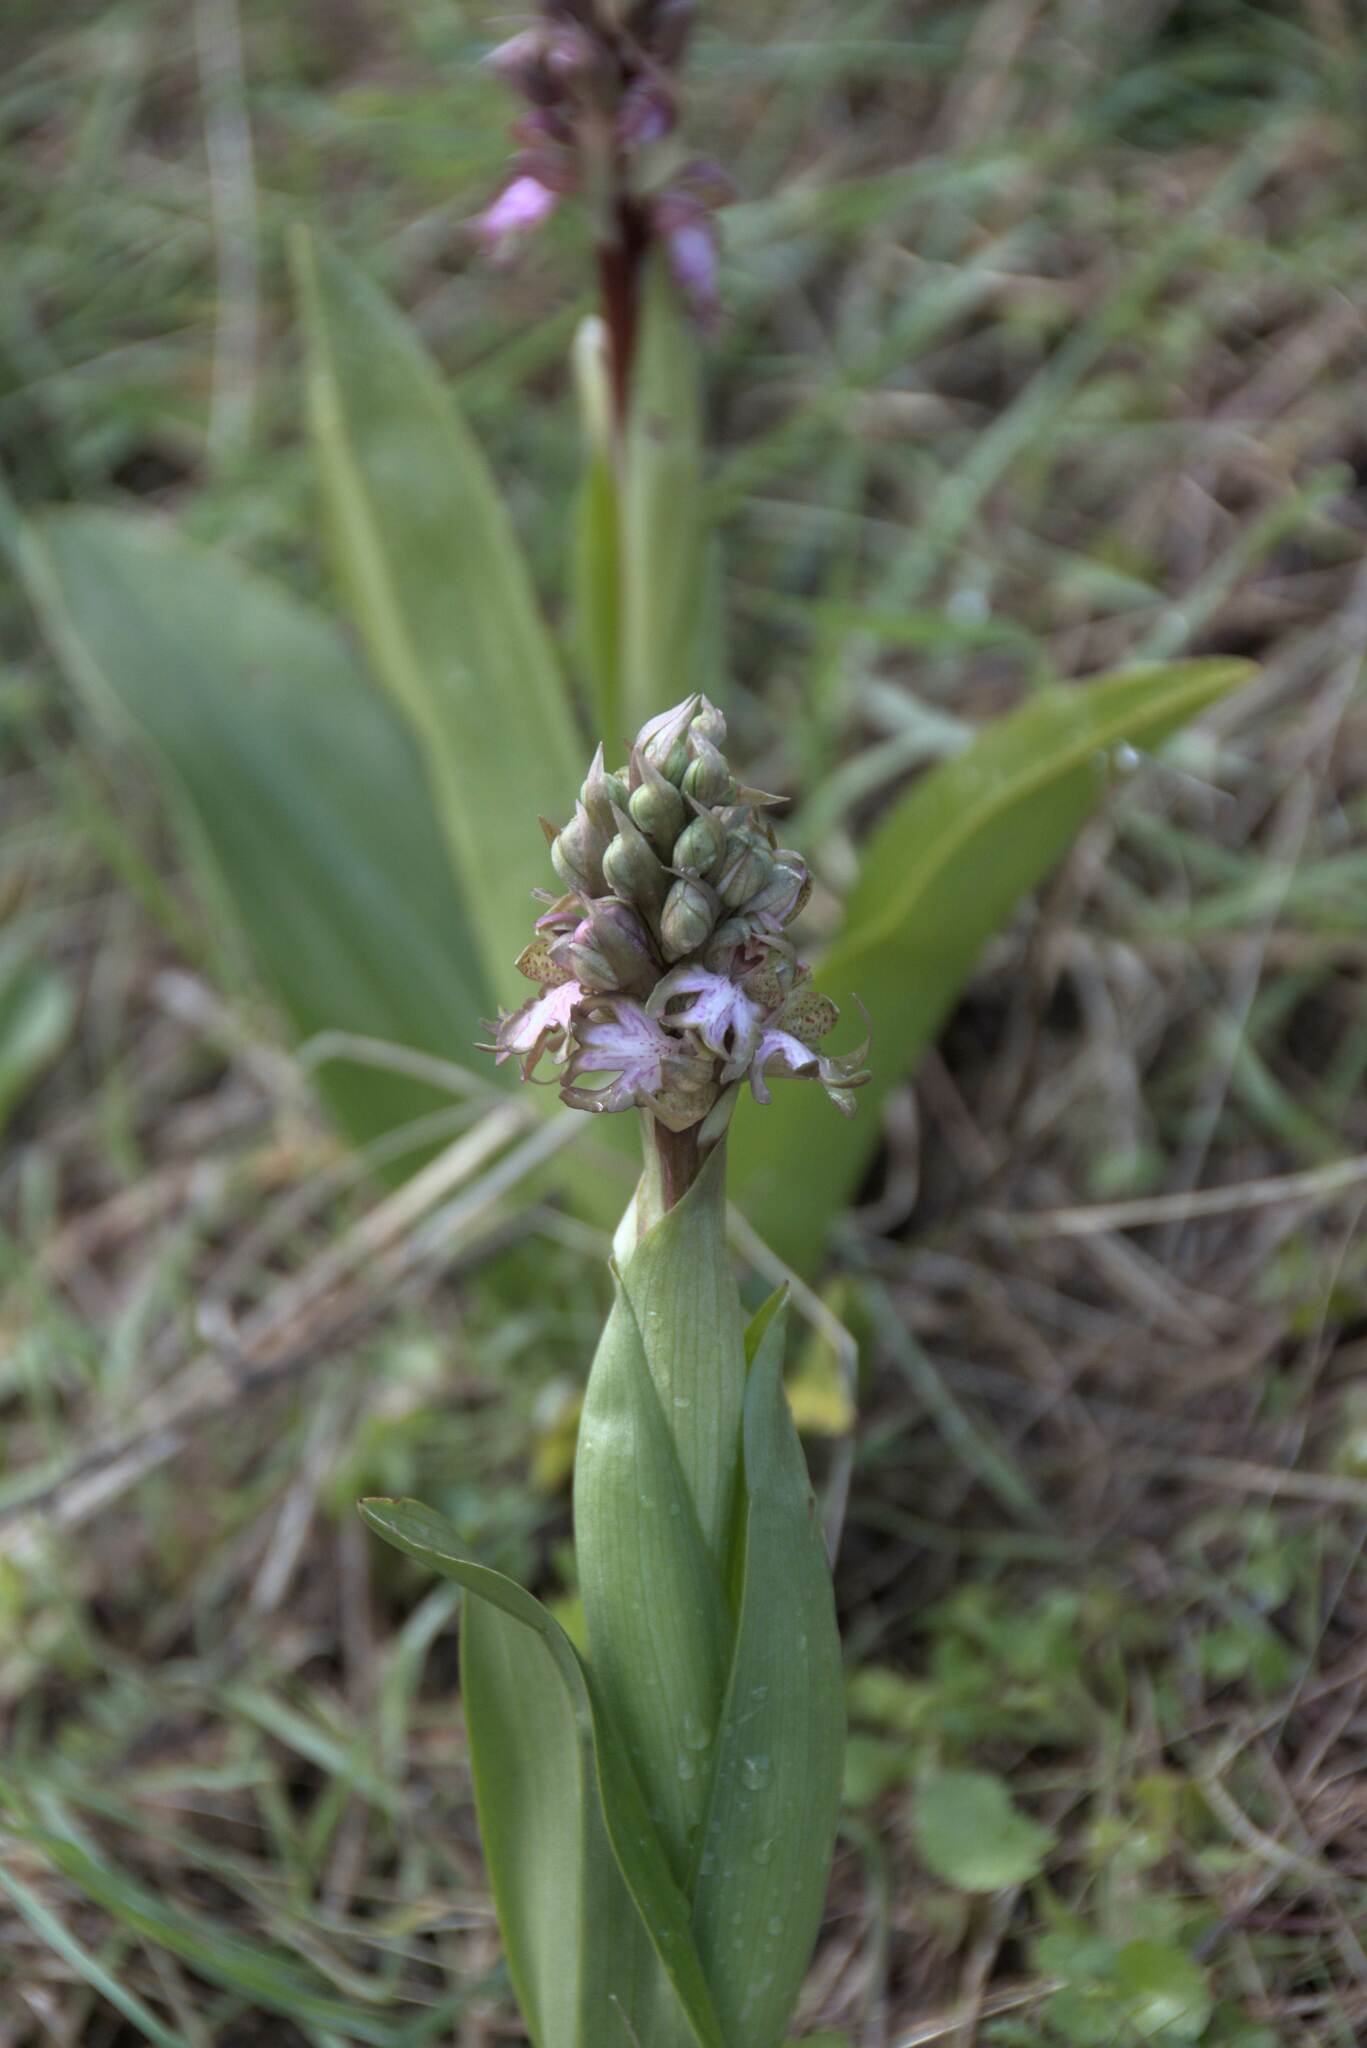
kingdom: Plantae
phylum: Tracheophyta
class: Liliopsida
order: Asparagales
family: Orchidaceae
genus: Himantoglossum
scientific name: Himantoglossum robertianum
